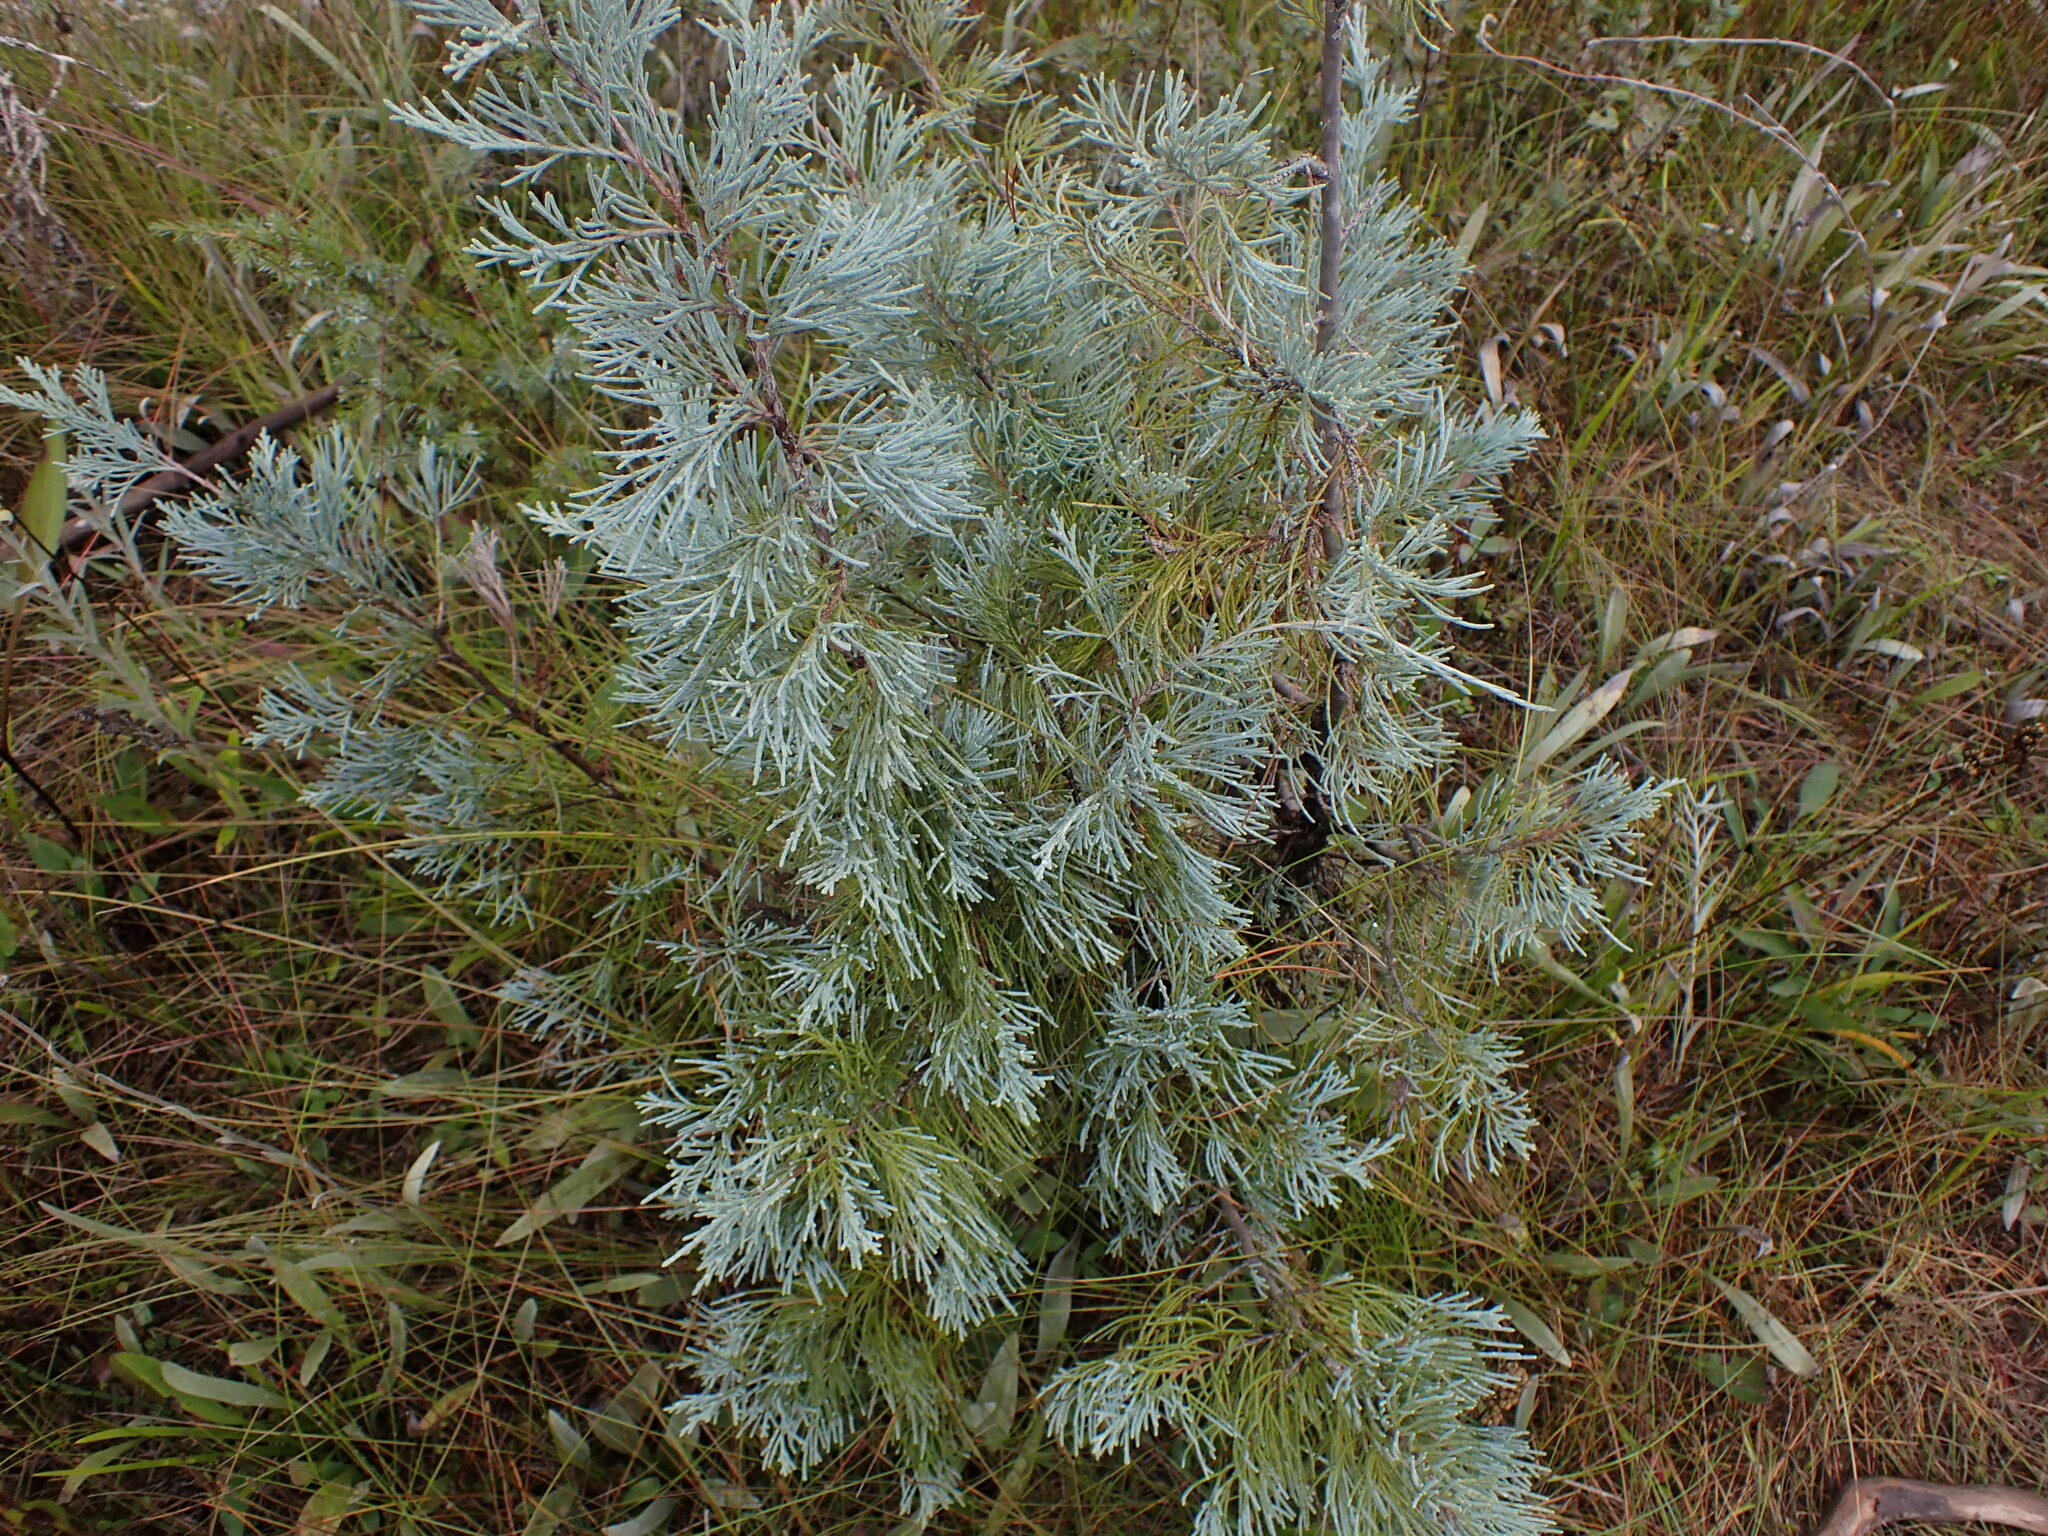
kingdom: Plantae
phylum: Tracheophyta
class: Pinopsida
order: Pinales
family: Cupressaceae
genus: Juniperus
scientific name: Juniperus scopulorum
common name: Rocky mountain juniper
